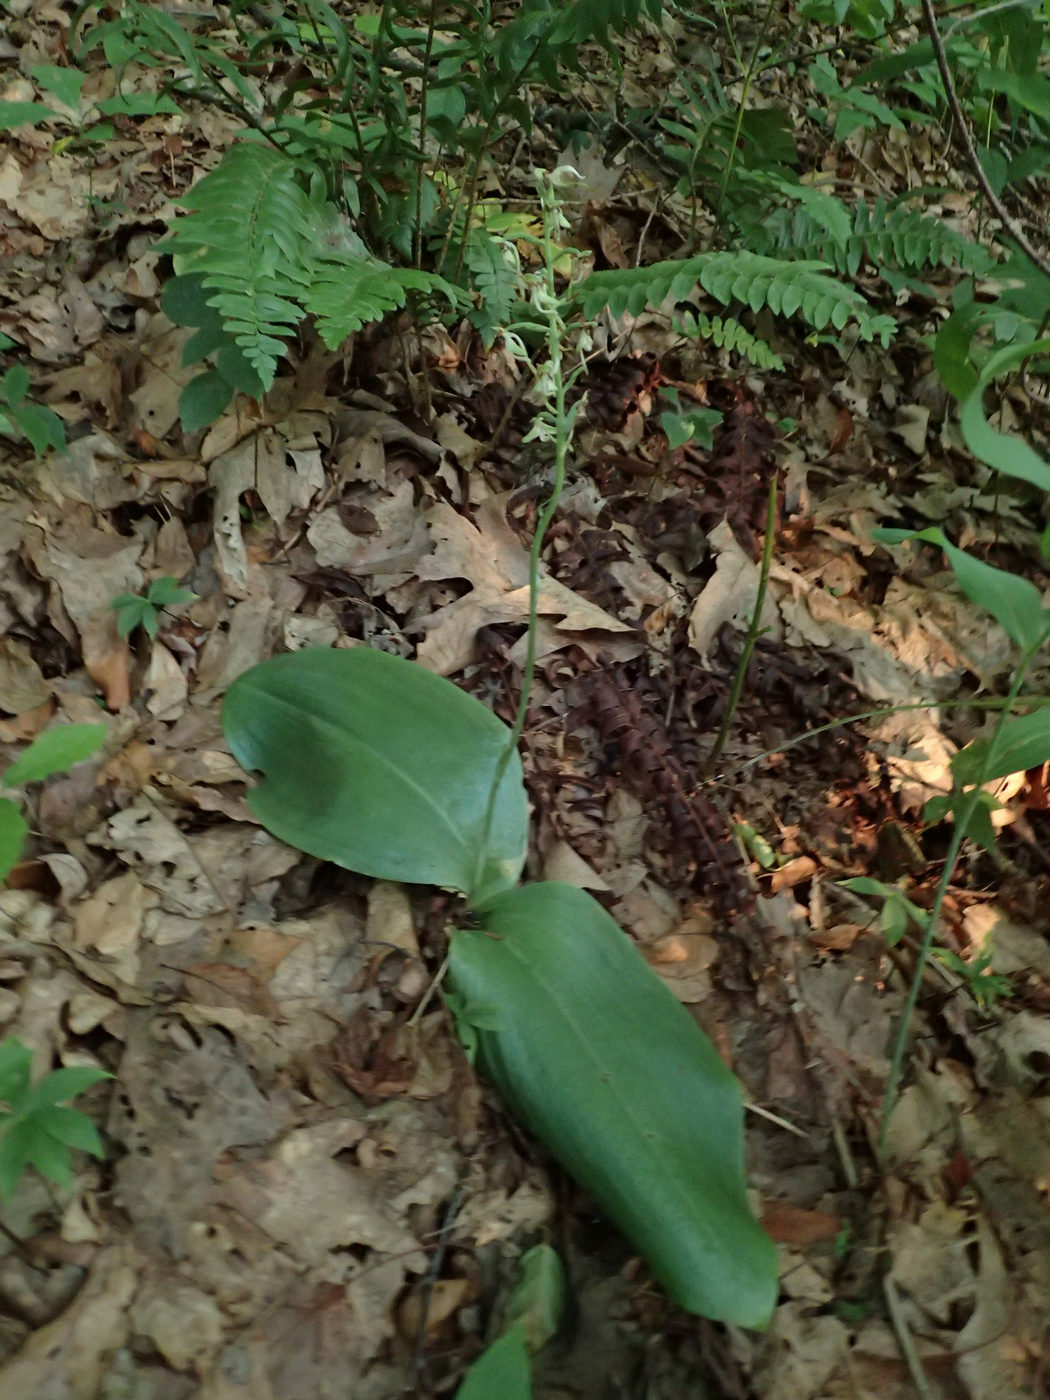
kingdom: Plantae
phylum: Tracheophyta
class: Liliopsida
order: Asparagales
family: Orchidaceae
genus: Platanthera
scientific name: Platanthera orbiculata
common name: Large round-leaved orchid
